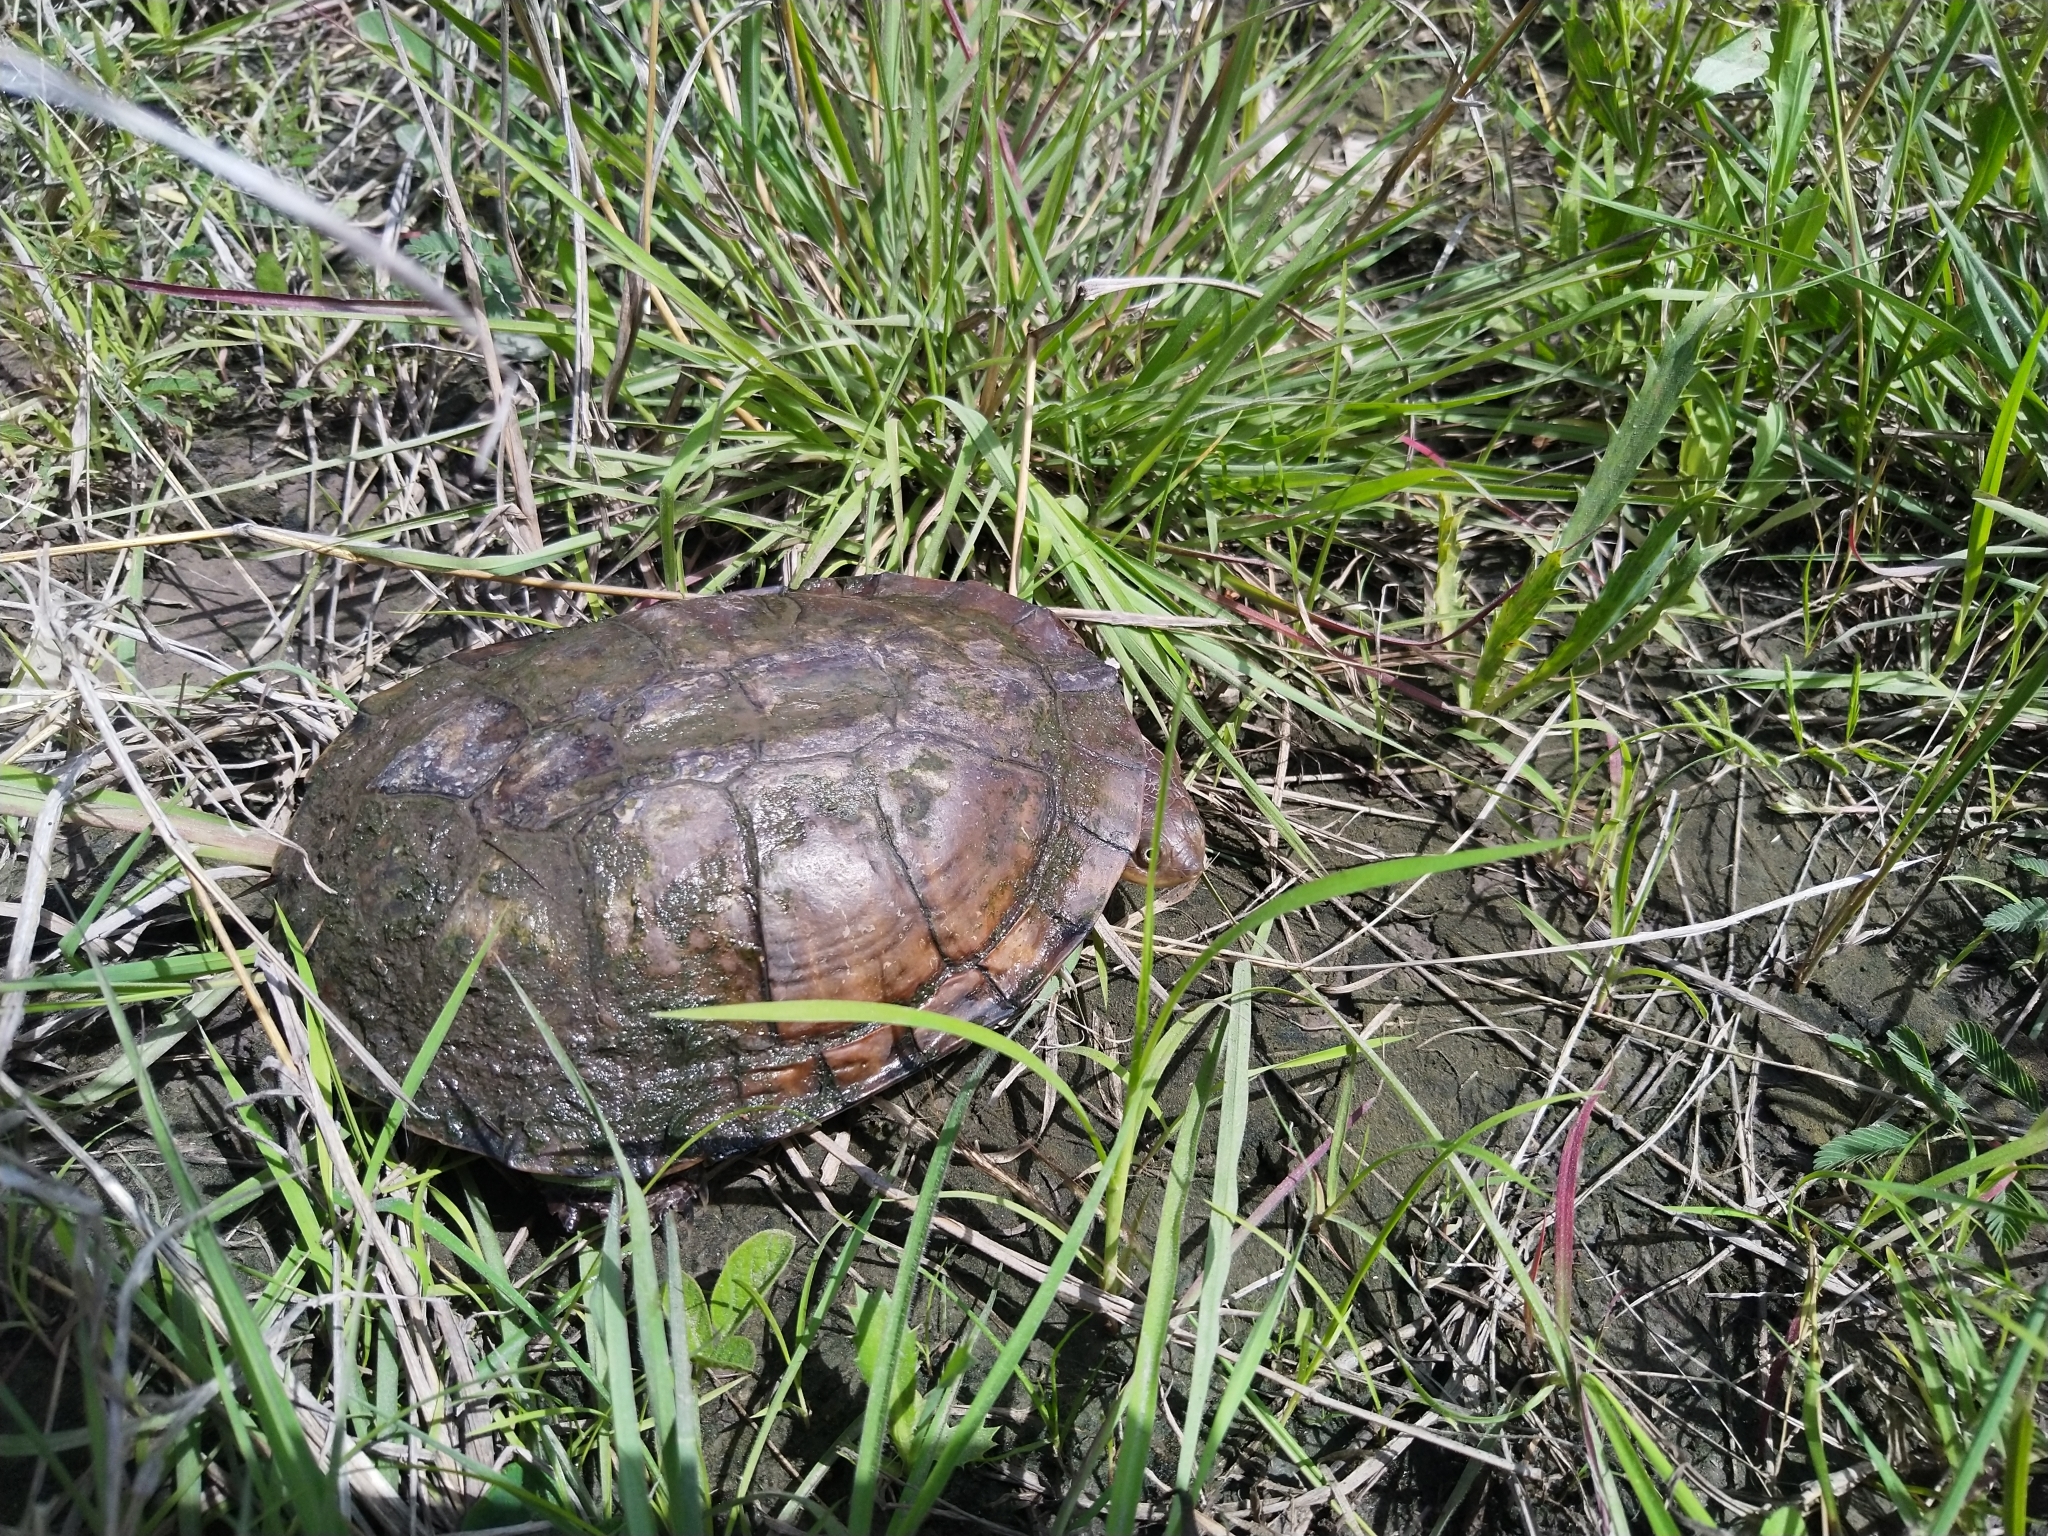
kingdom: Animalia
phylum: Chordata
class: Testudines
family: Chelidae
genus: Acanthochelys
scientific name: Acanthochelys pallidipectoris
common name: Chaco side-necked turtle
